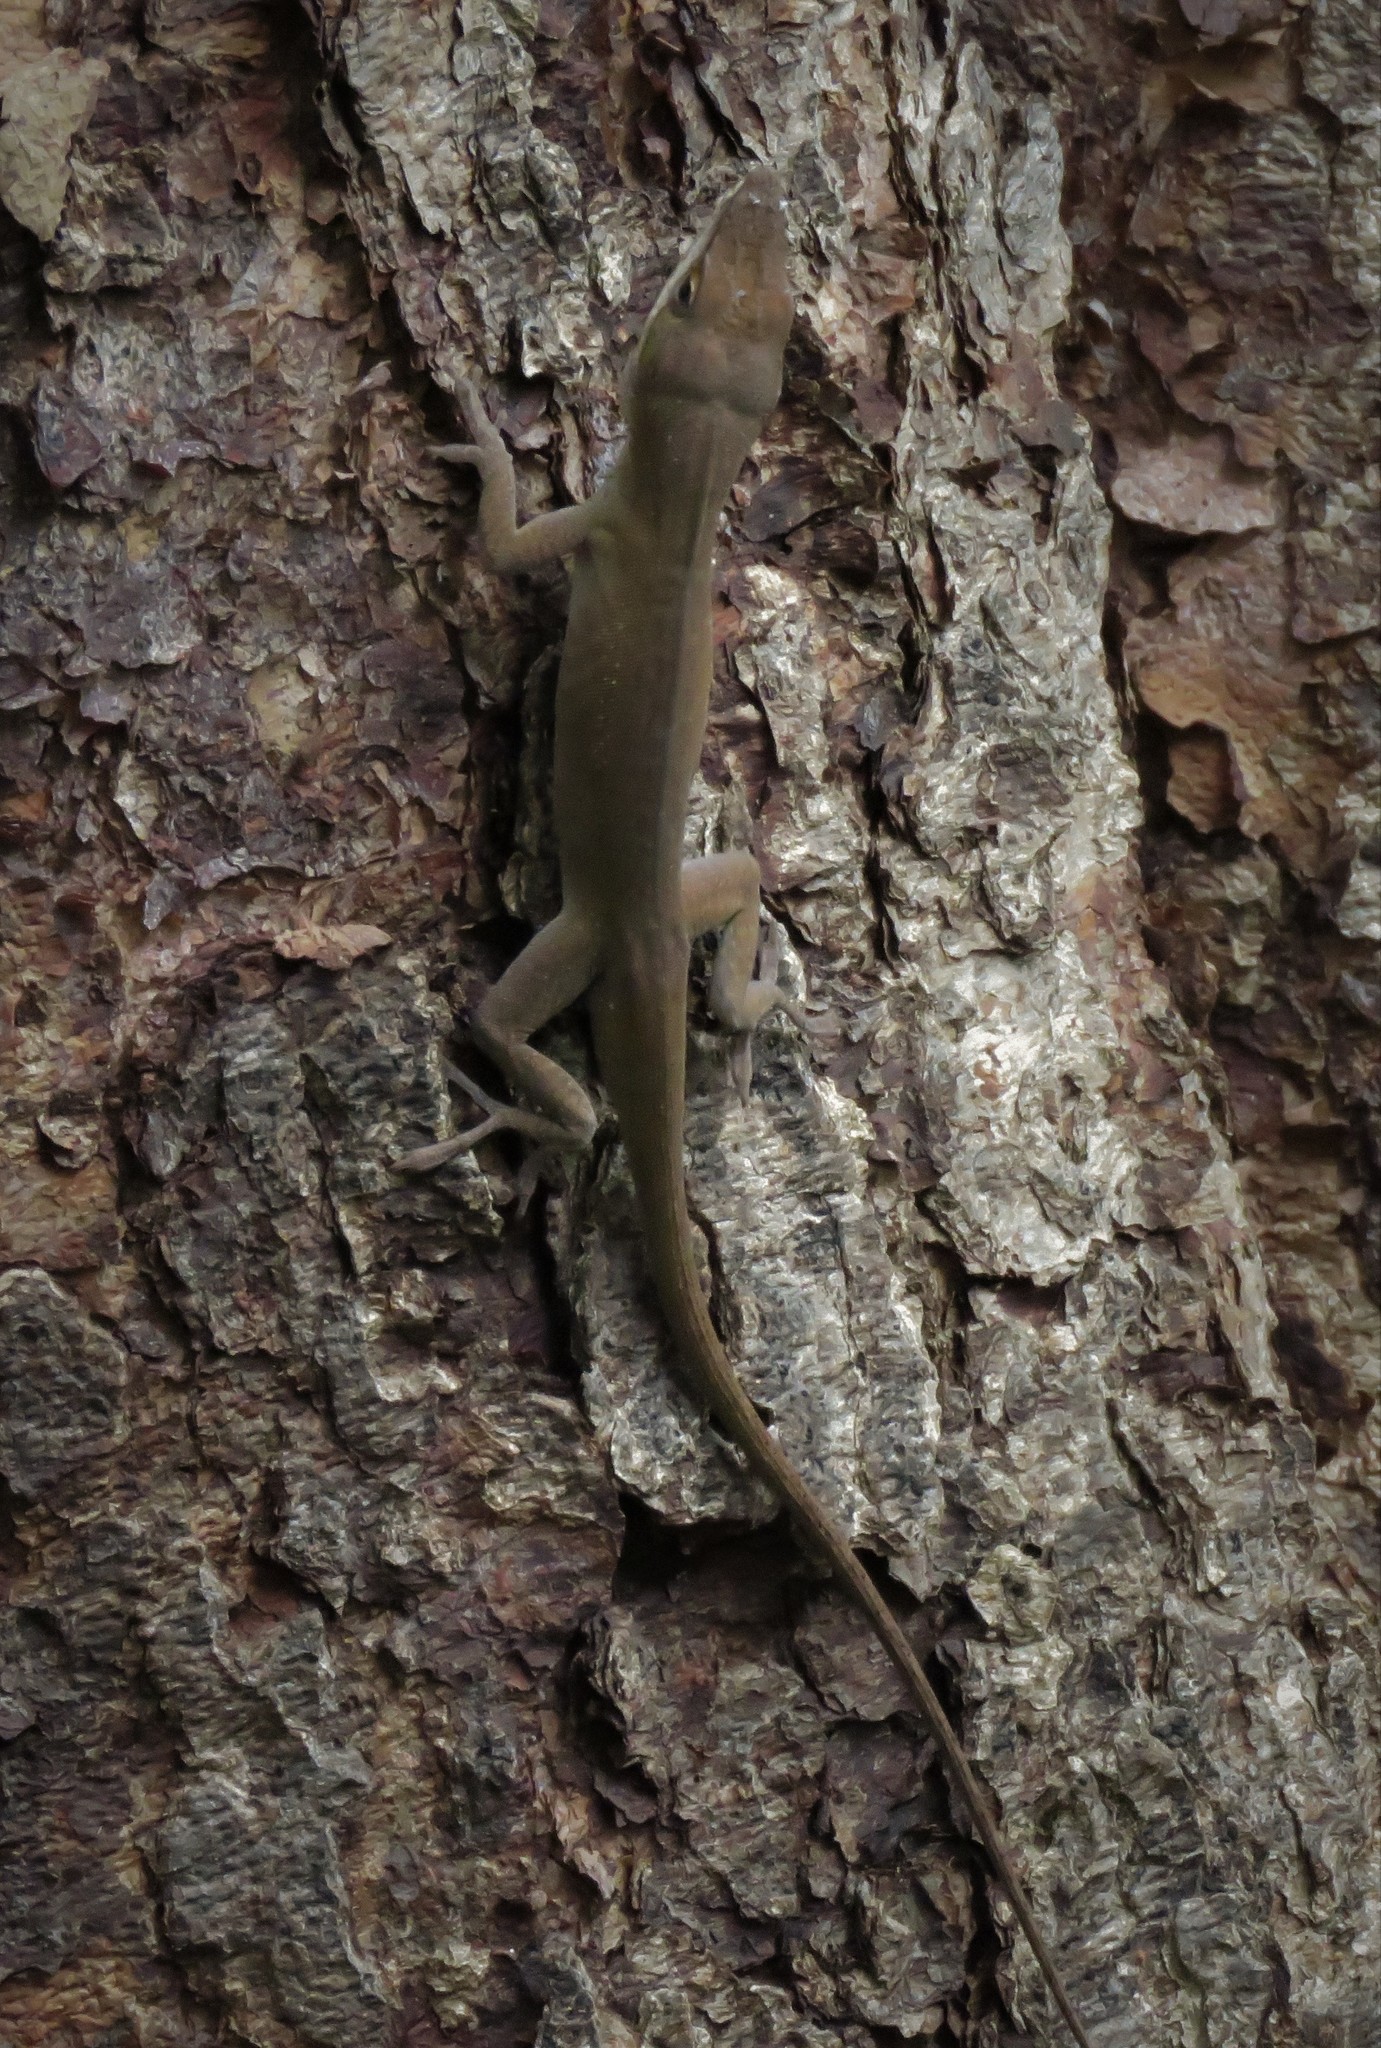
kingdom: Animalia
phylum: Chordata
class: Squamata
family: Dactyloidae
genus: Anolis
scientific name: Anolis carolinensis
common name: Green anole
